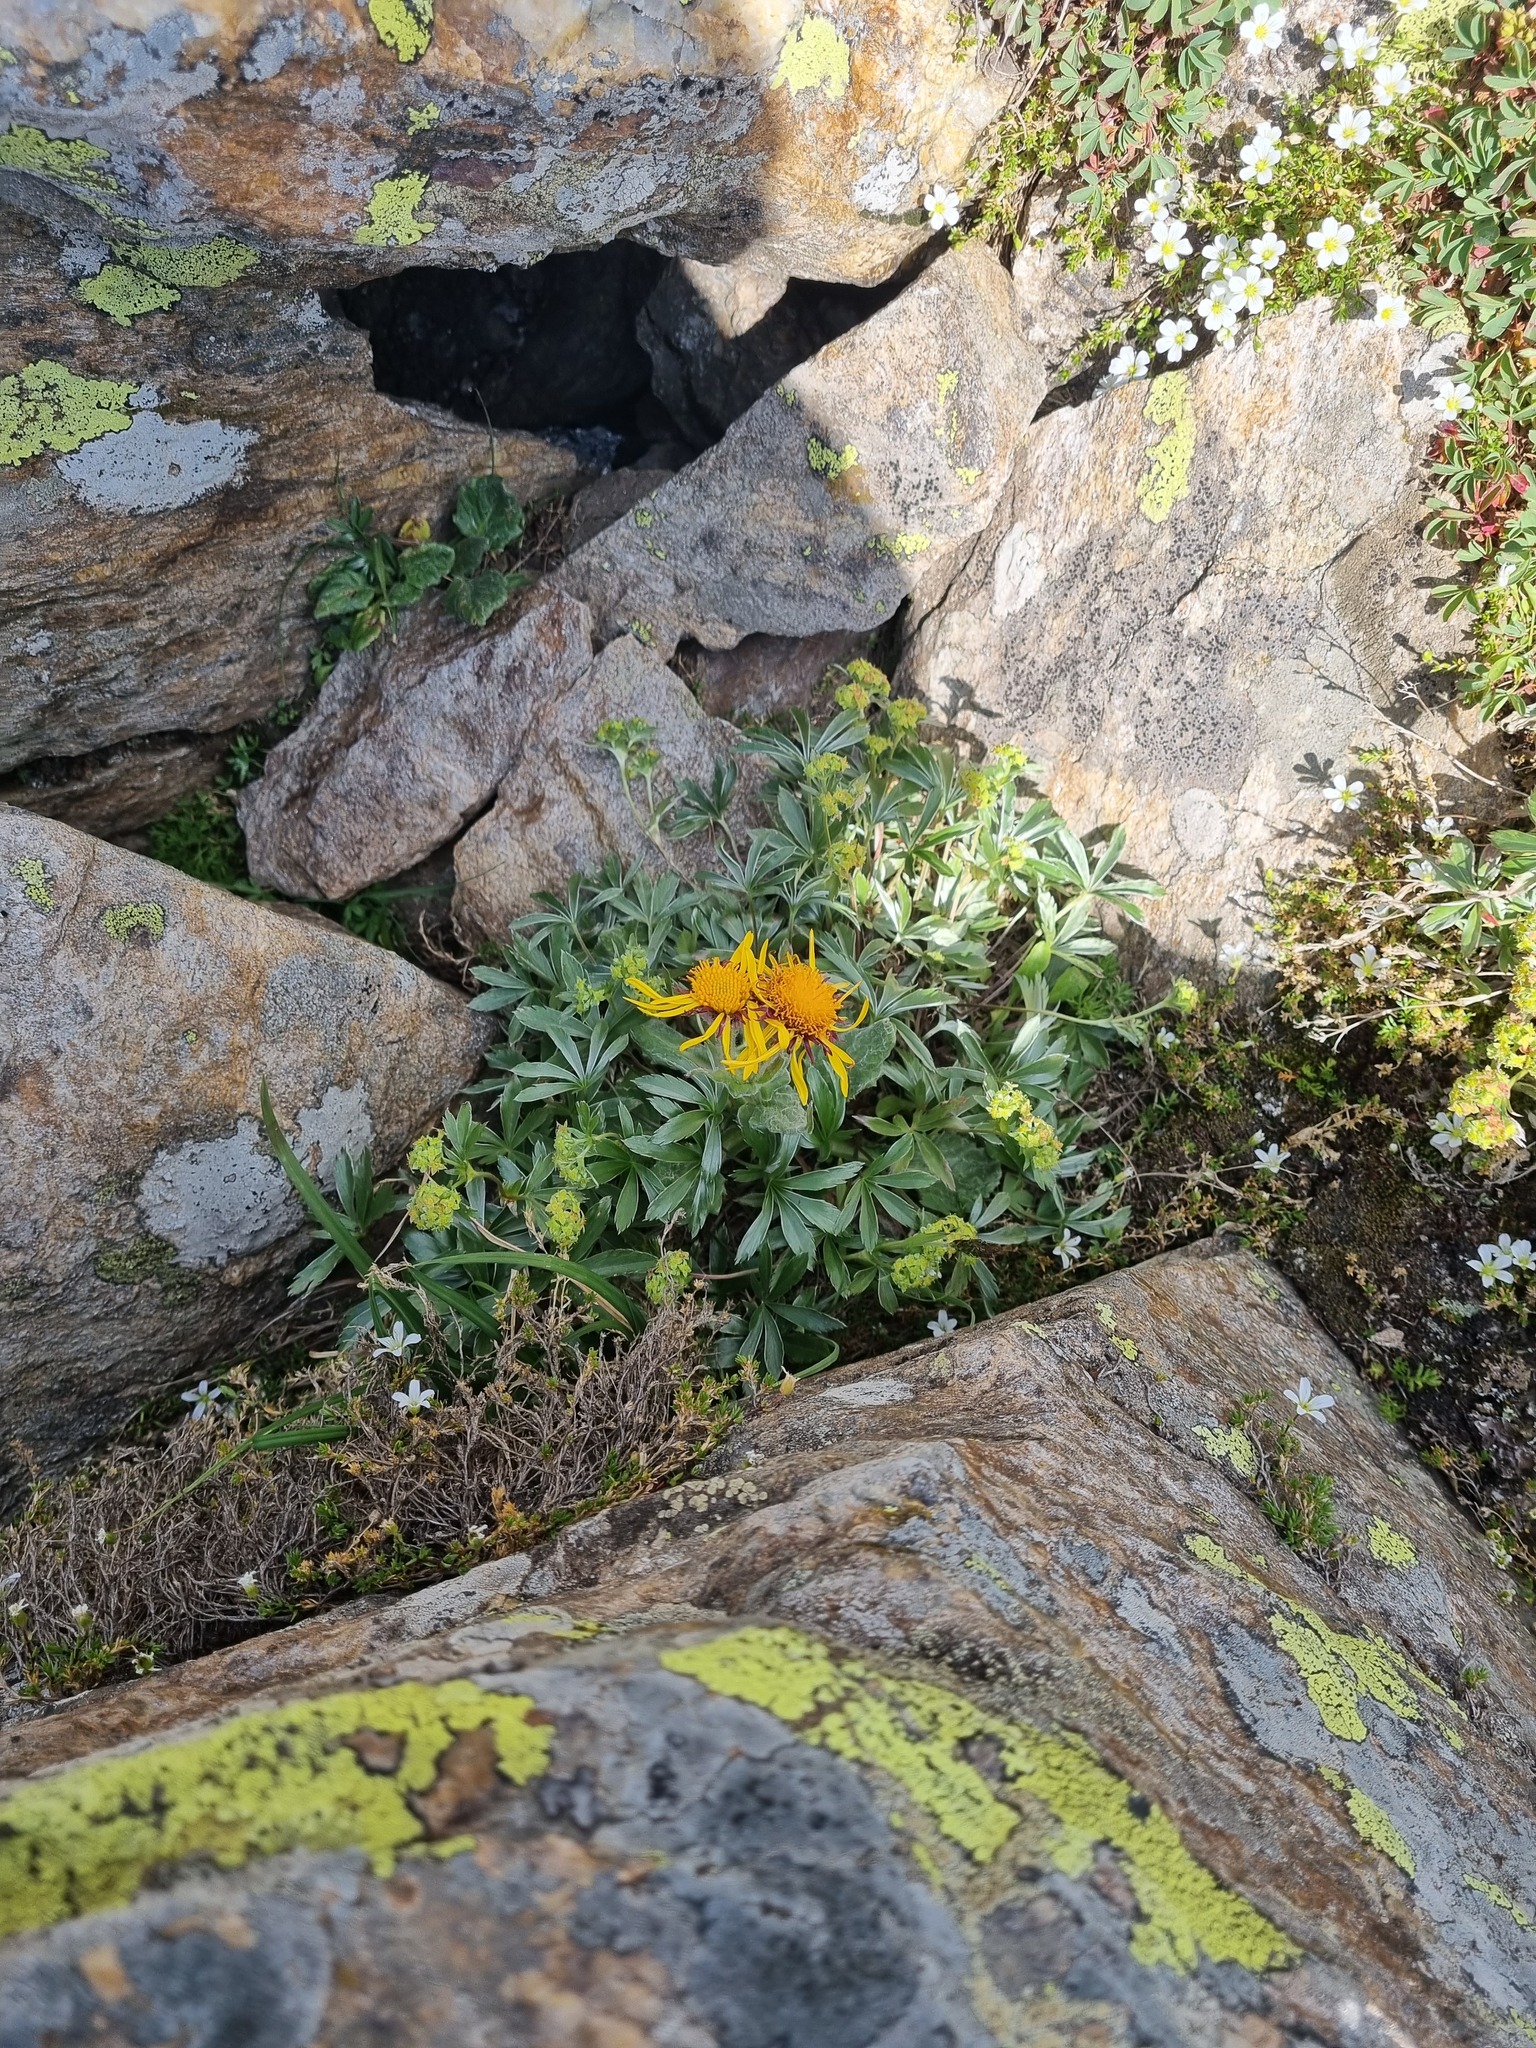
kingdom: Plantae
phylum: Tracheophyta
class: Magnoliopsida
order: Rosales
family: Rosaceae
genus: Alchemilla
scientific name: Alchemilla sericea
